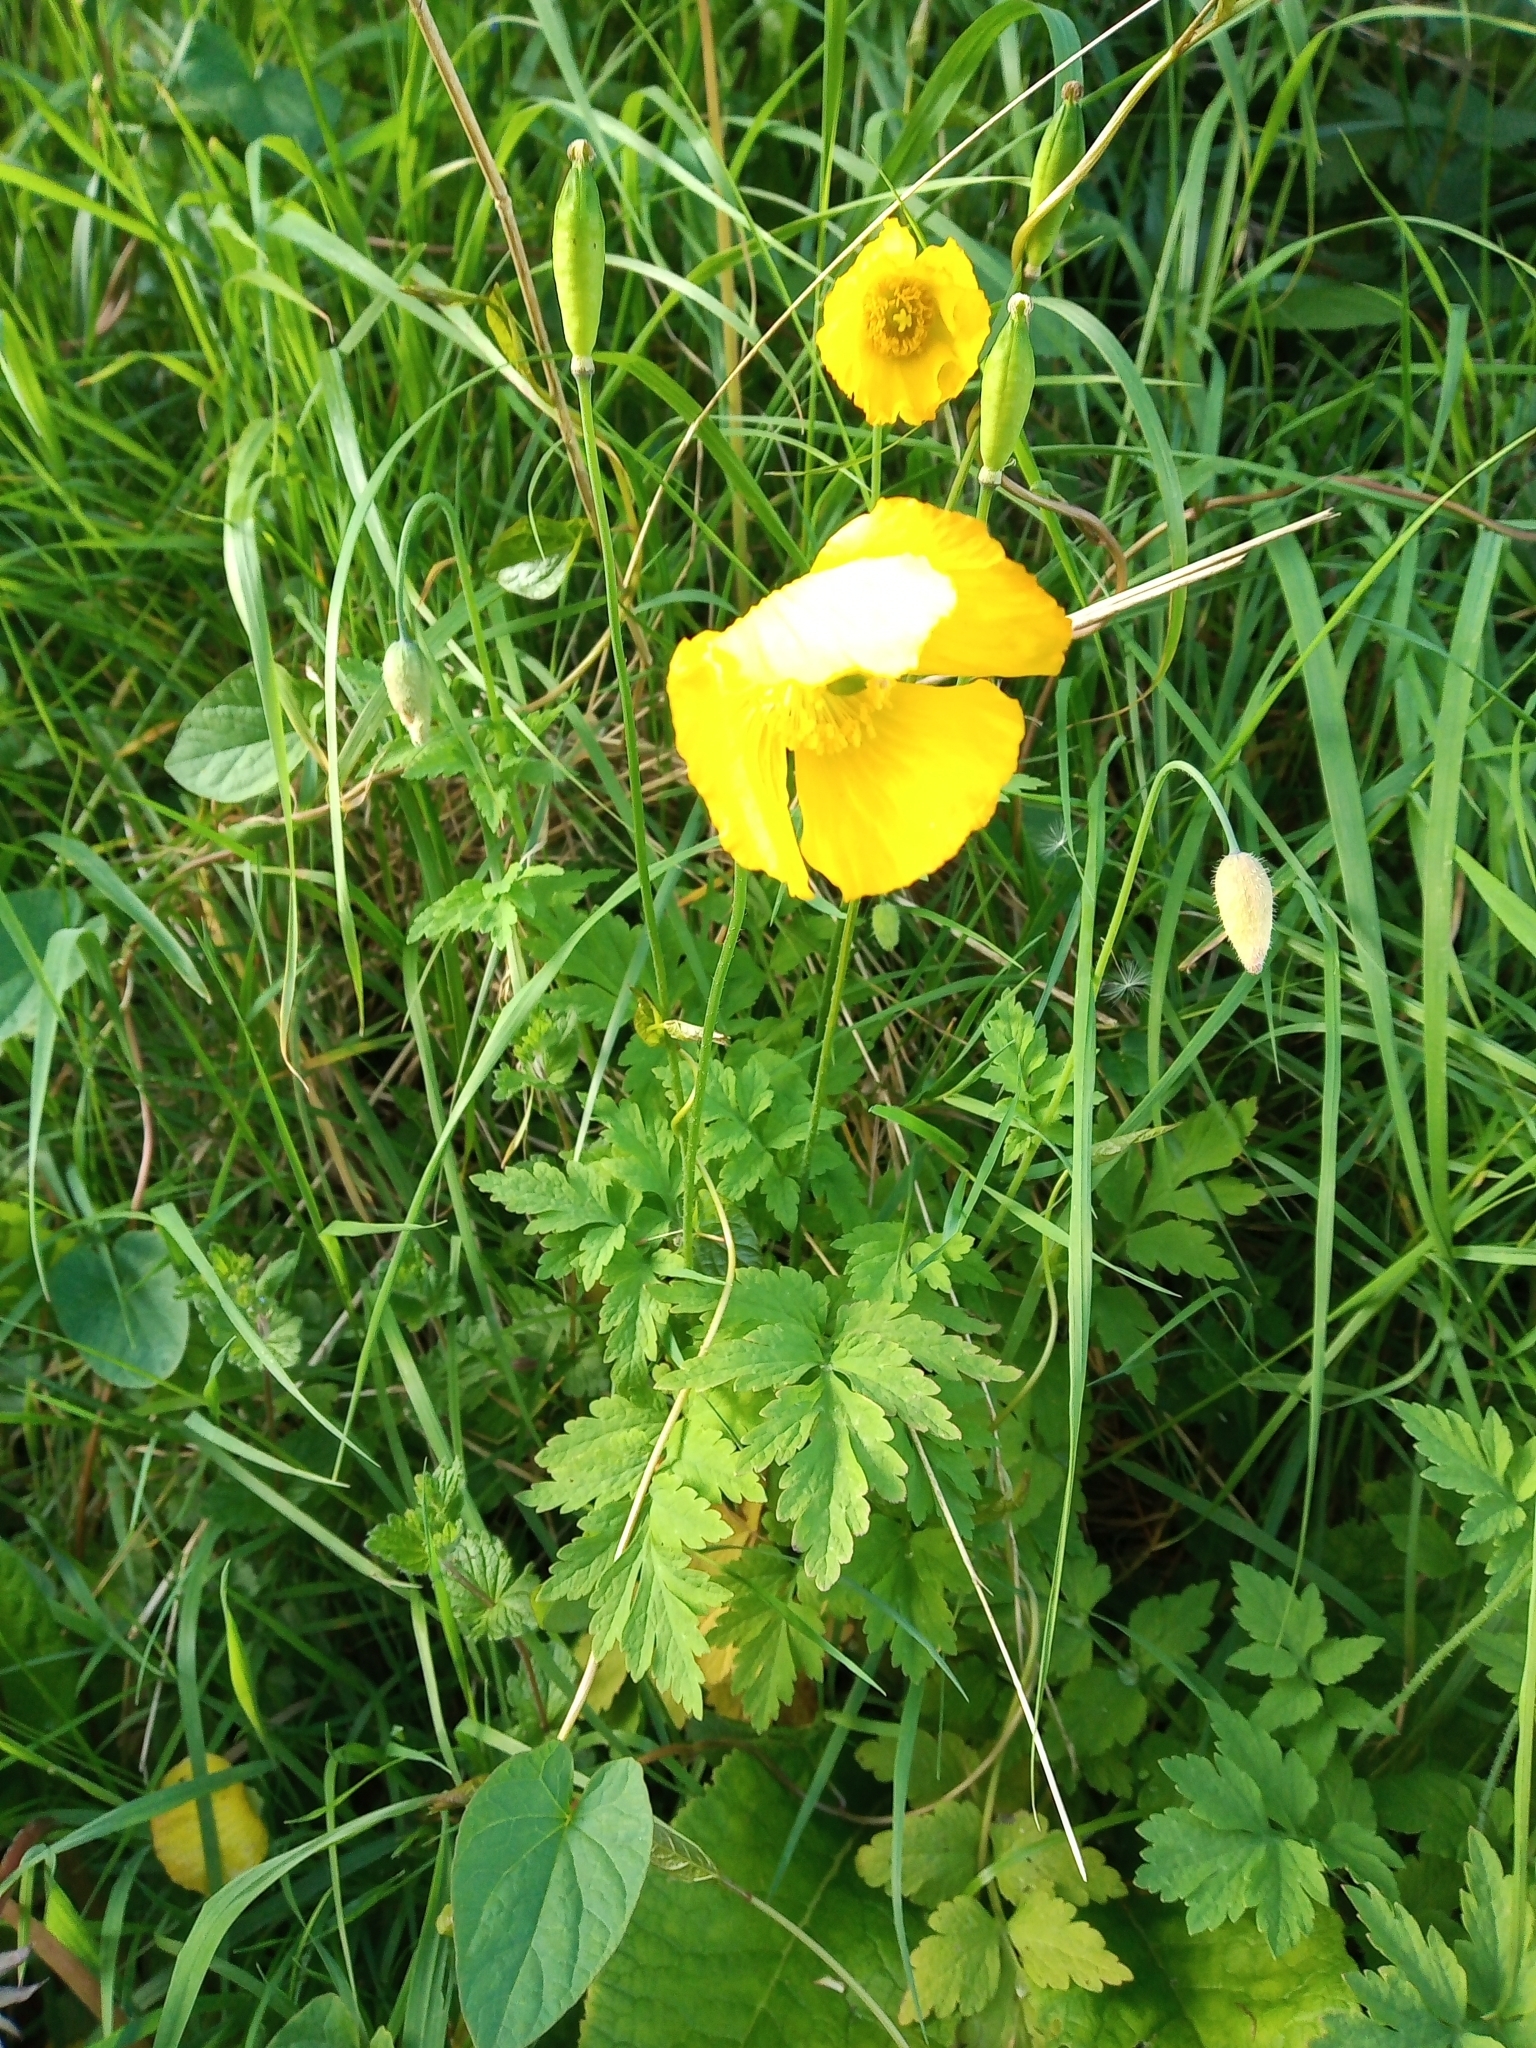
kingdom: Plantae
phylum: Tracheophyta
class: Magnoliopsida
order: Ranunculales
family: Papaveraceae
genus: Papaver
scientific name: Papaver cambricum
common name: Poppy
